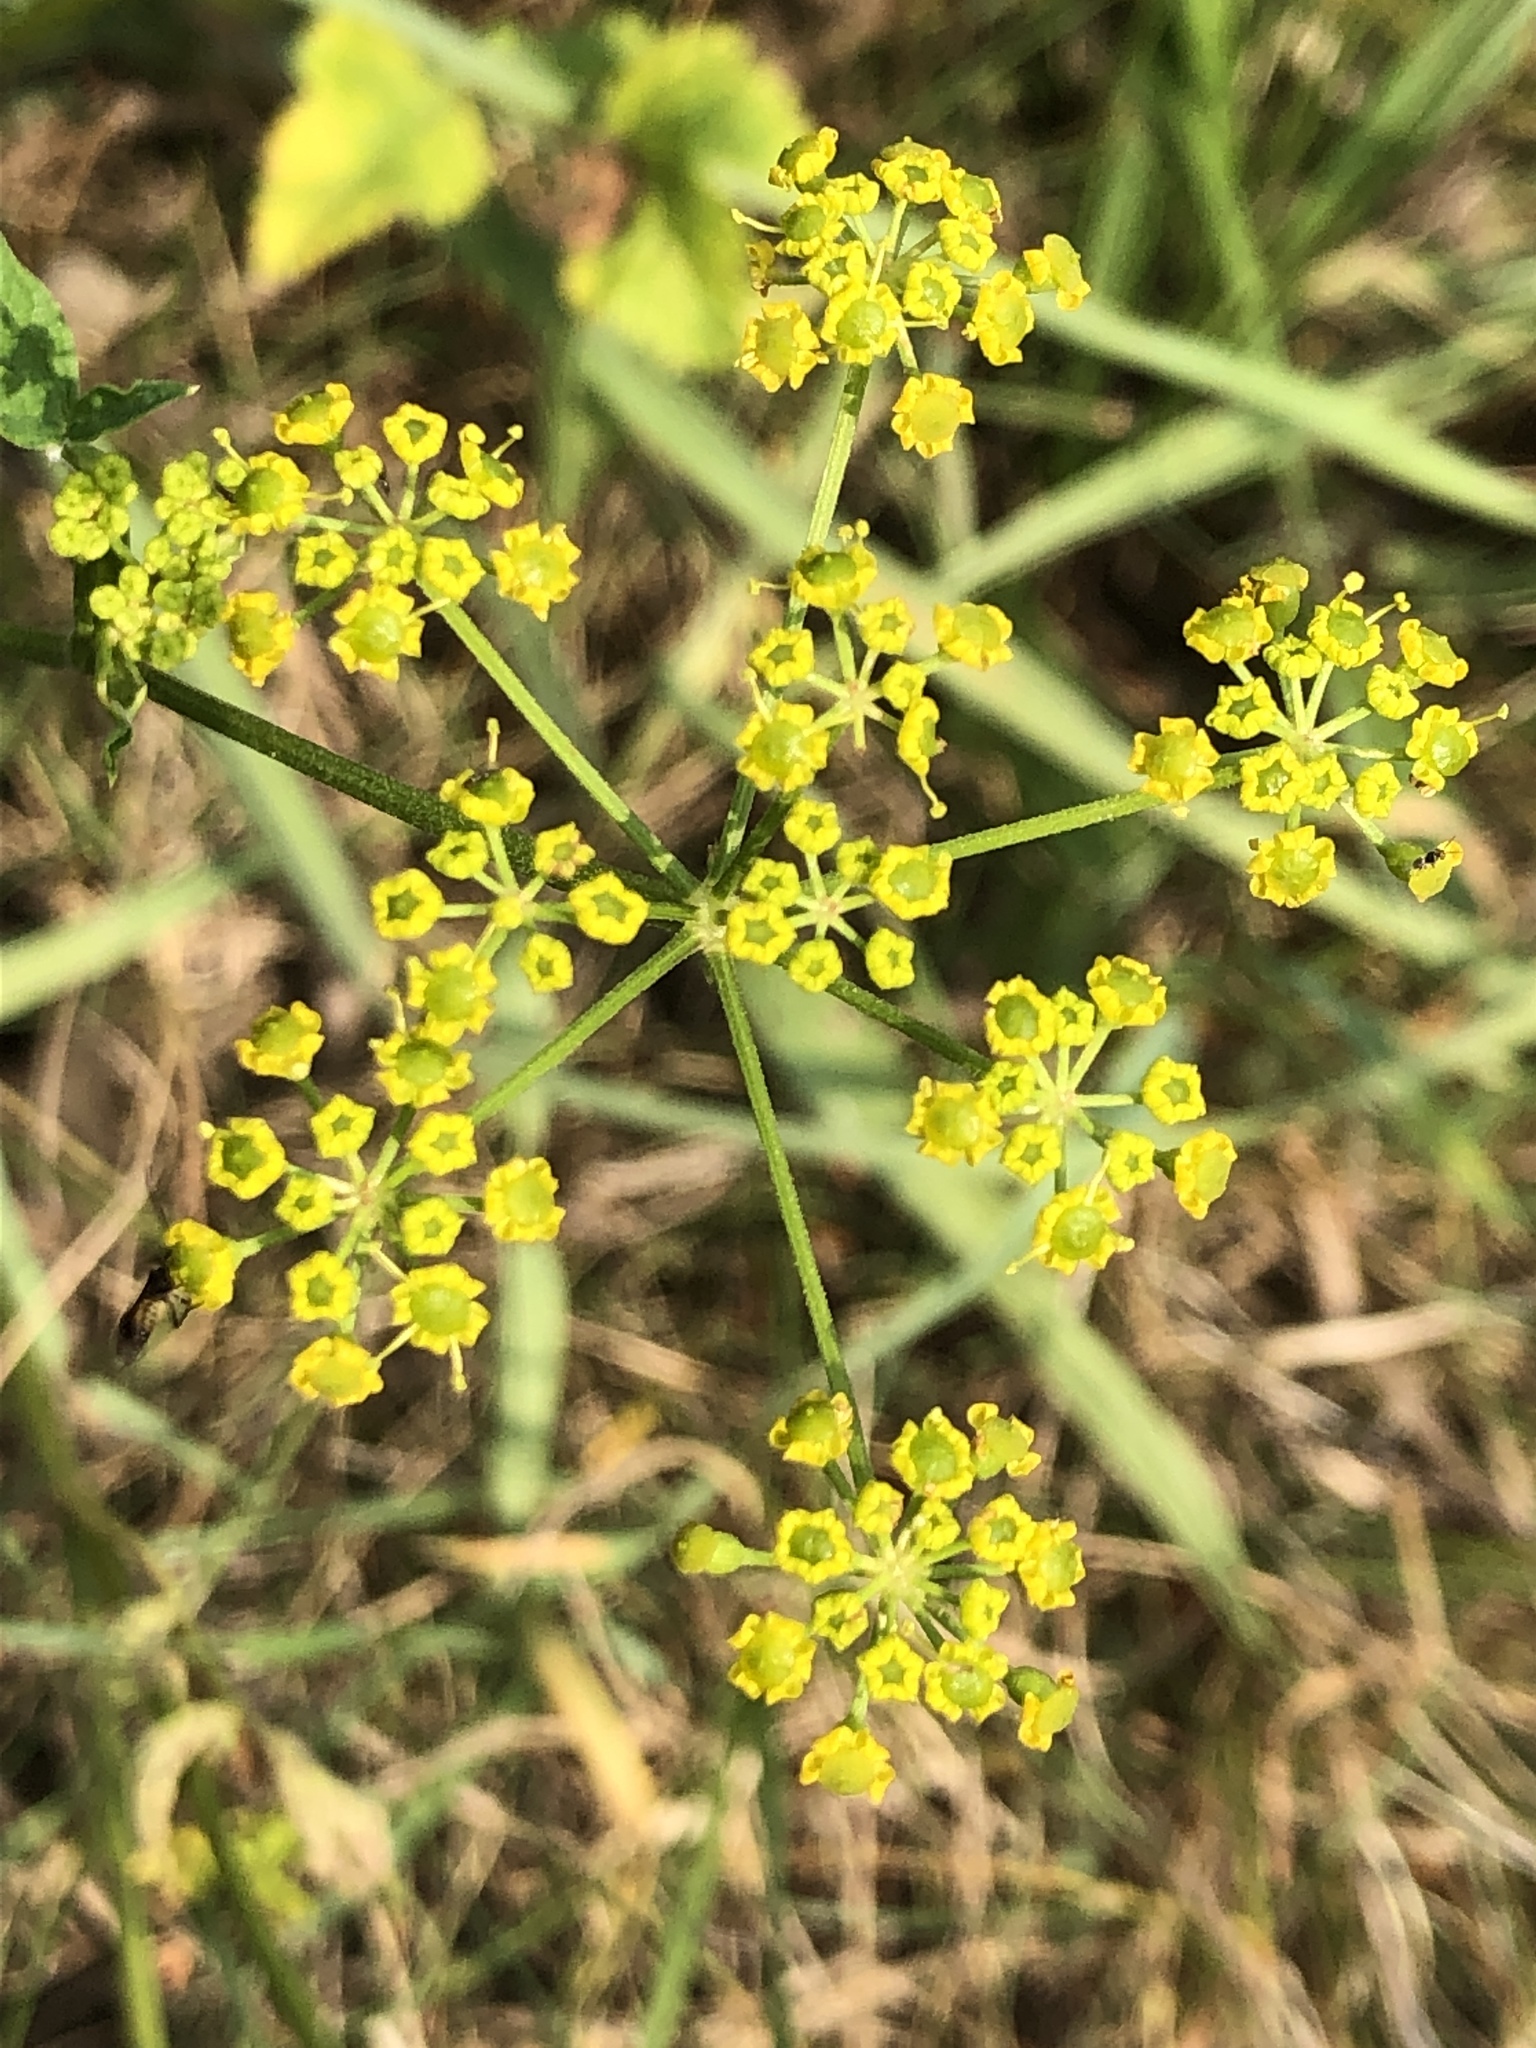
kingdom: Plantae
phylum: Tracheophyta
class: Magnoliopsida
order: Apiales
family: Apiaceae
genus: Pastinaca
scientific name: Pastinaca sativa
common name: Wild parsnip
